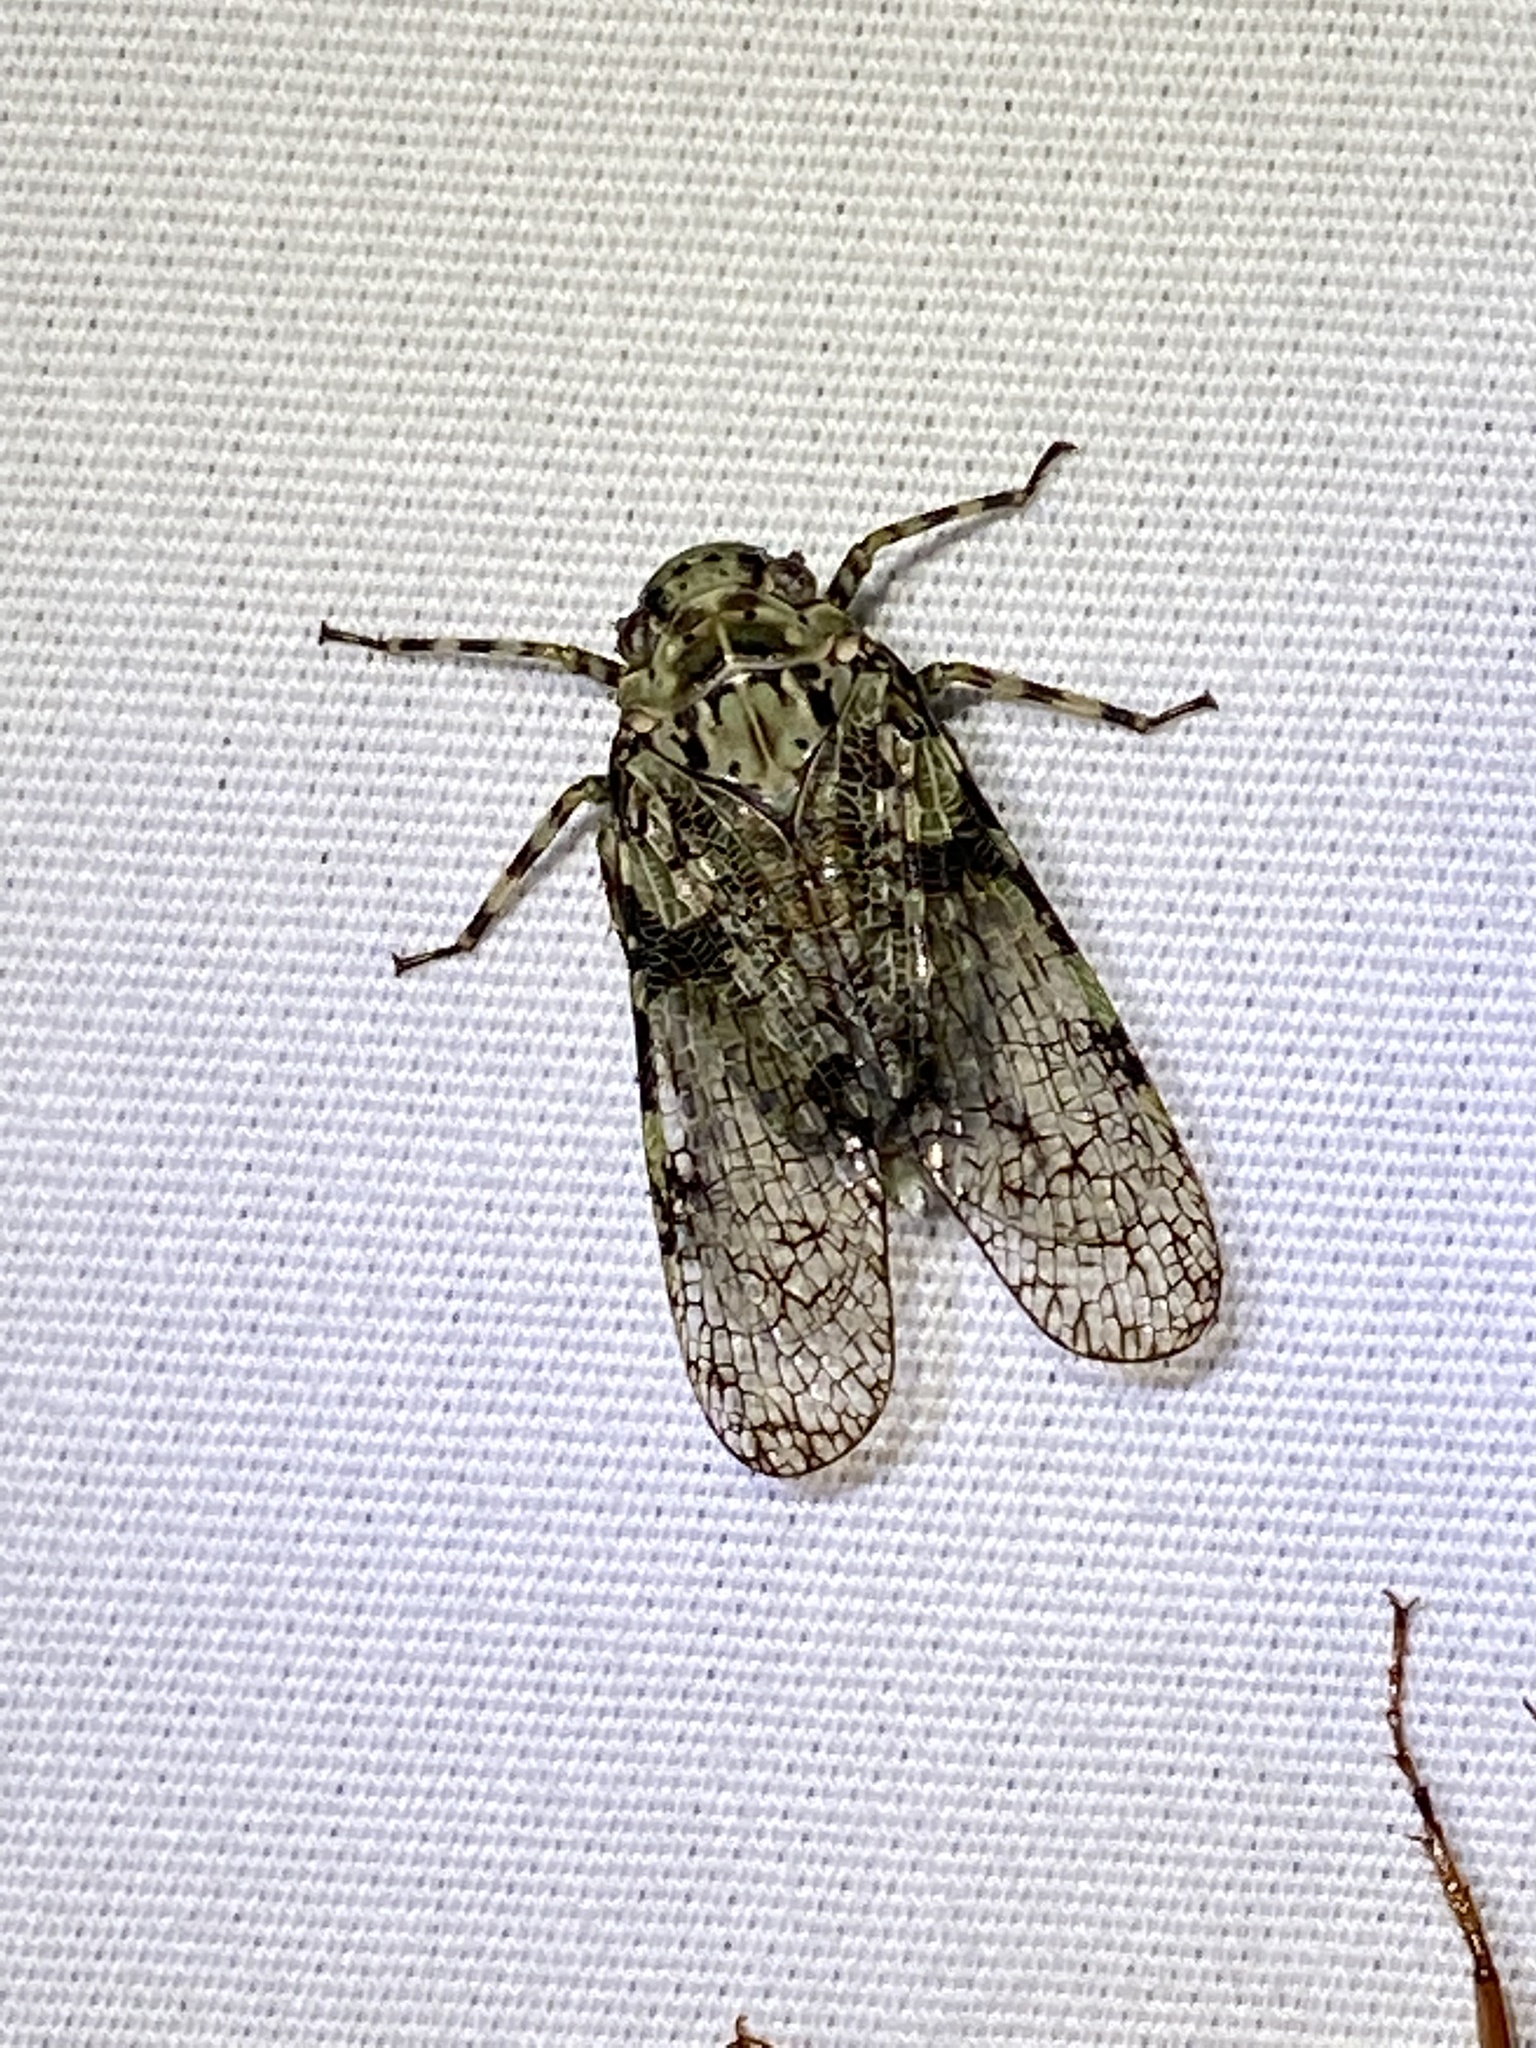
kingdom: Animalia
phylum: Arthropoda
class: Insecta
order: Hemiptera
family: Fulgoridae
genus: Calyptoproctus
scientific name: Calyptoproctus marmoratus
